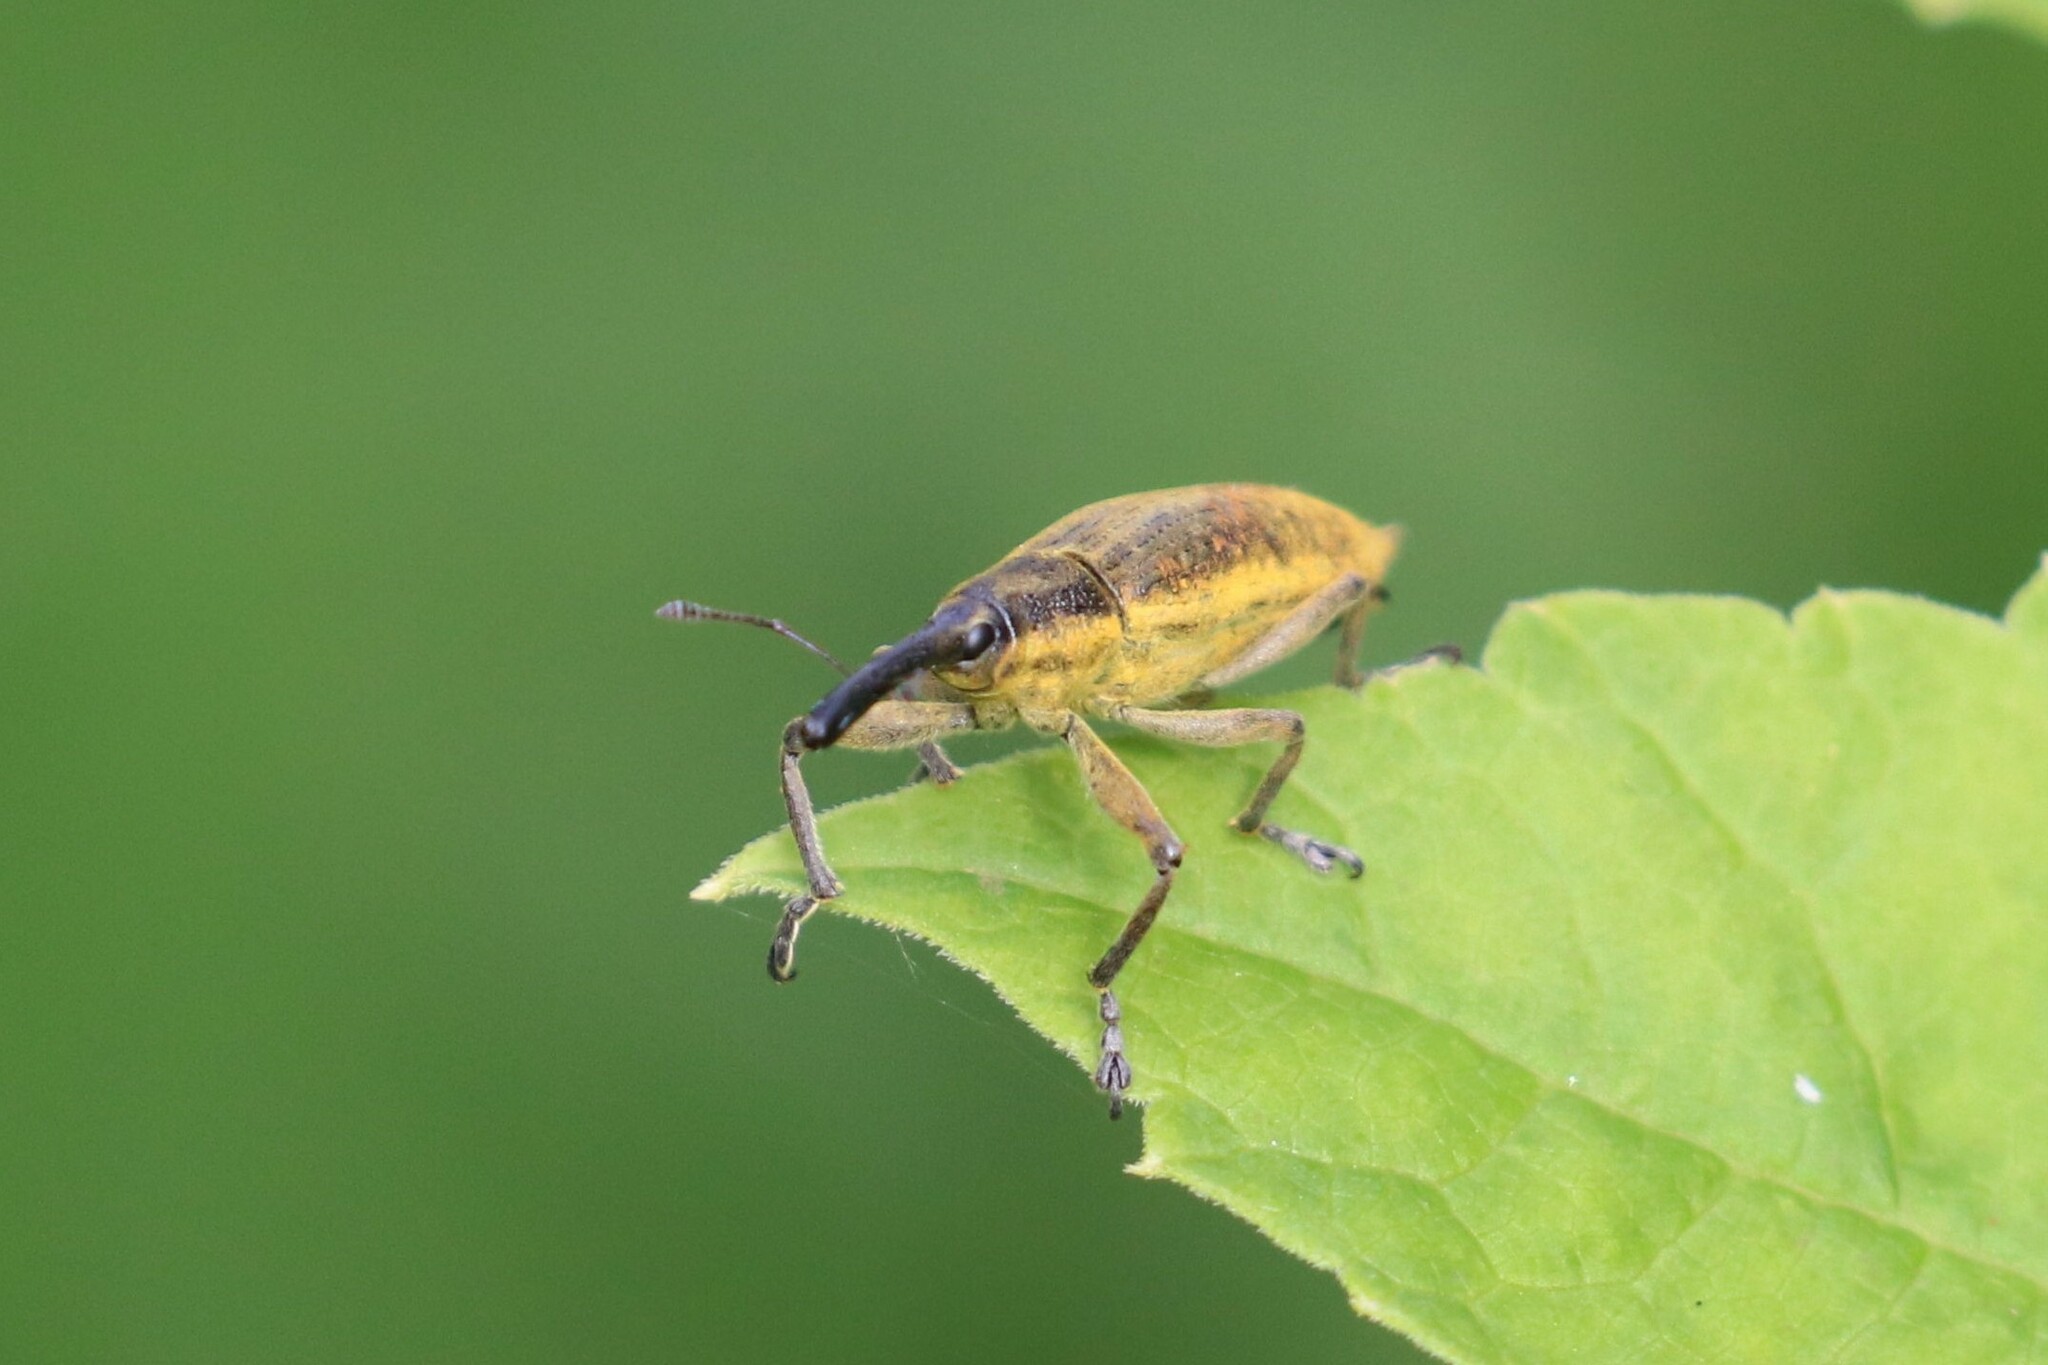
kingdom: Animalia
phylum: Arthropoda
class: Insecta
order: Coleoptera
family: Curculionidae
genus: Lixus
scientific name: Lixus iridis
